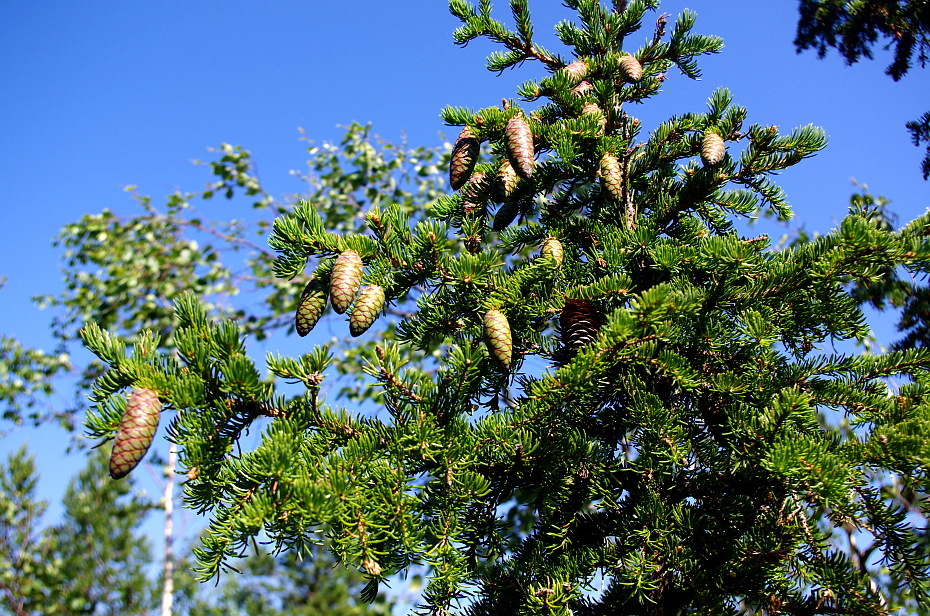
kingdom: Plantae
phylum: Tracheophyta
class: Pinopsida
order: Pinales
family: Pinaceae
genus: Picea
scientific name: Picea fennica
